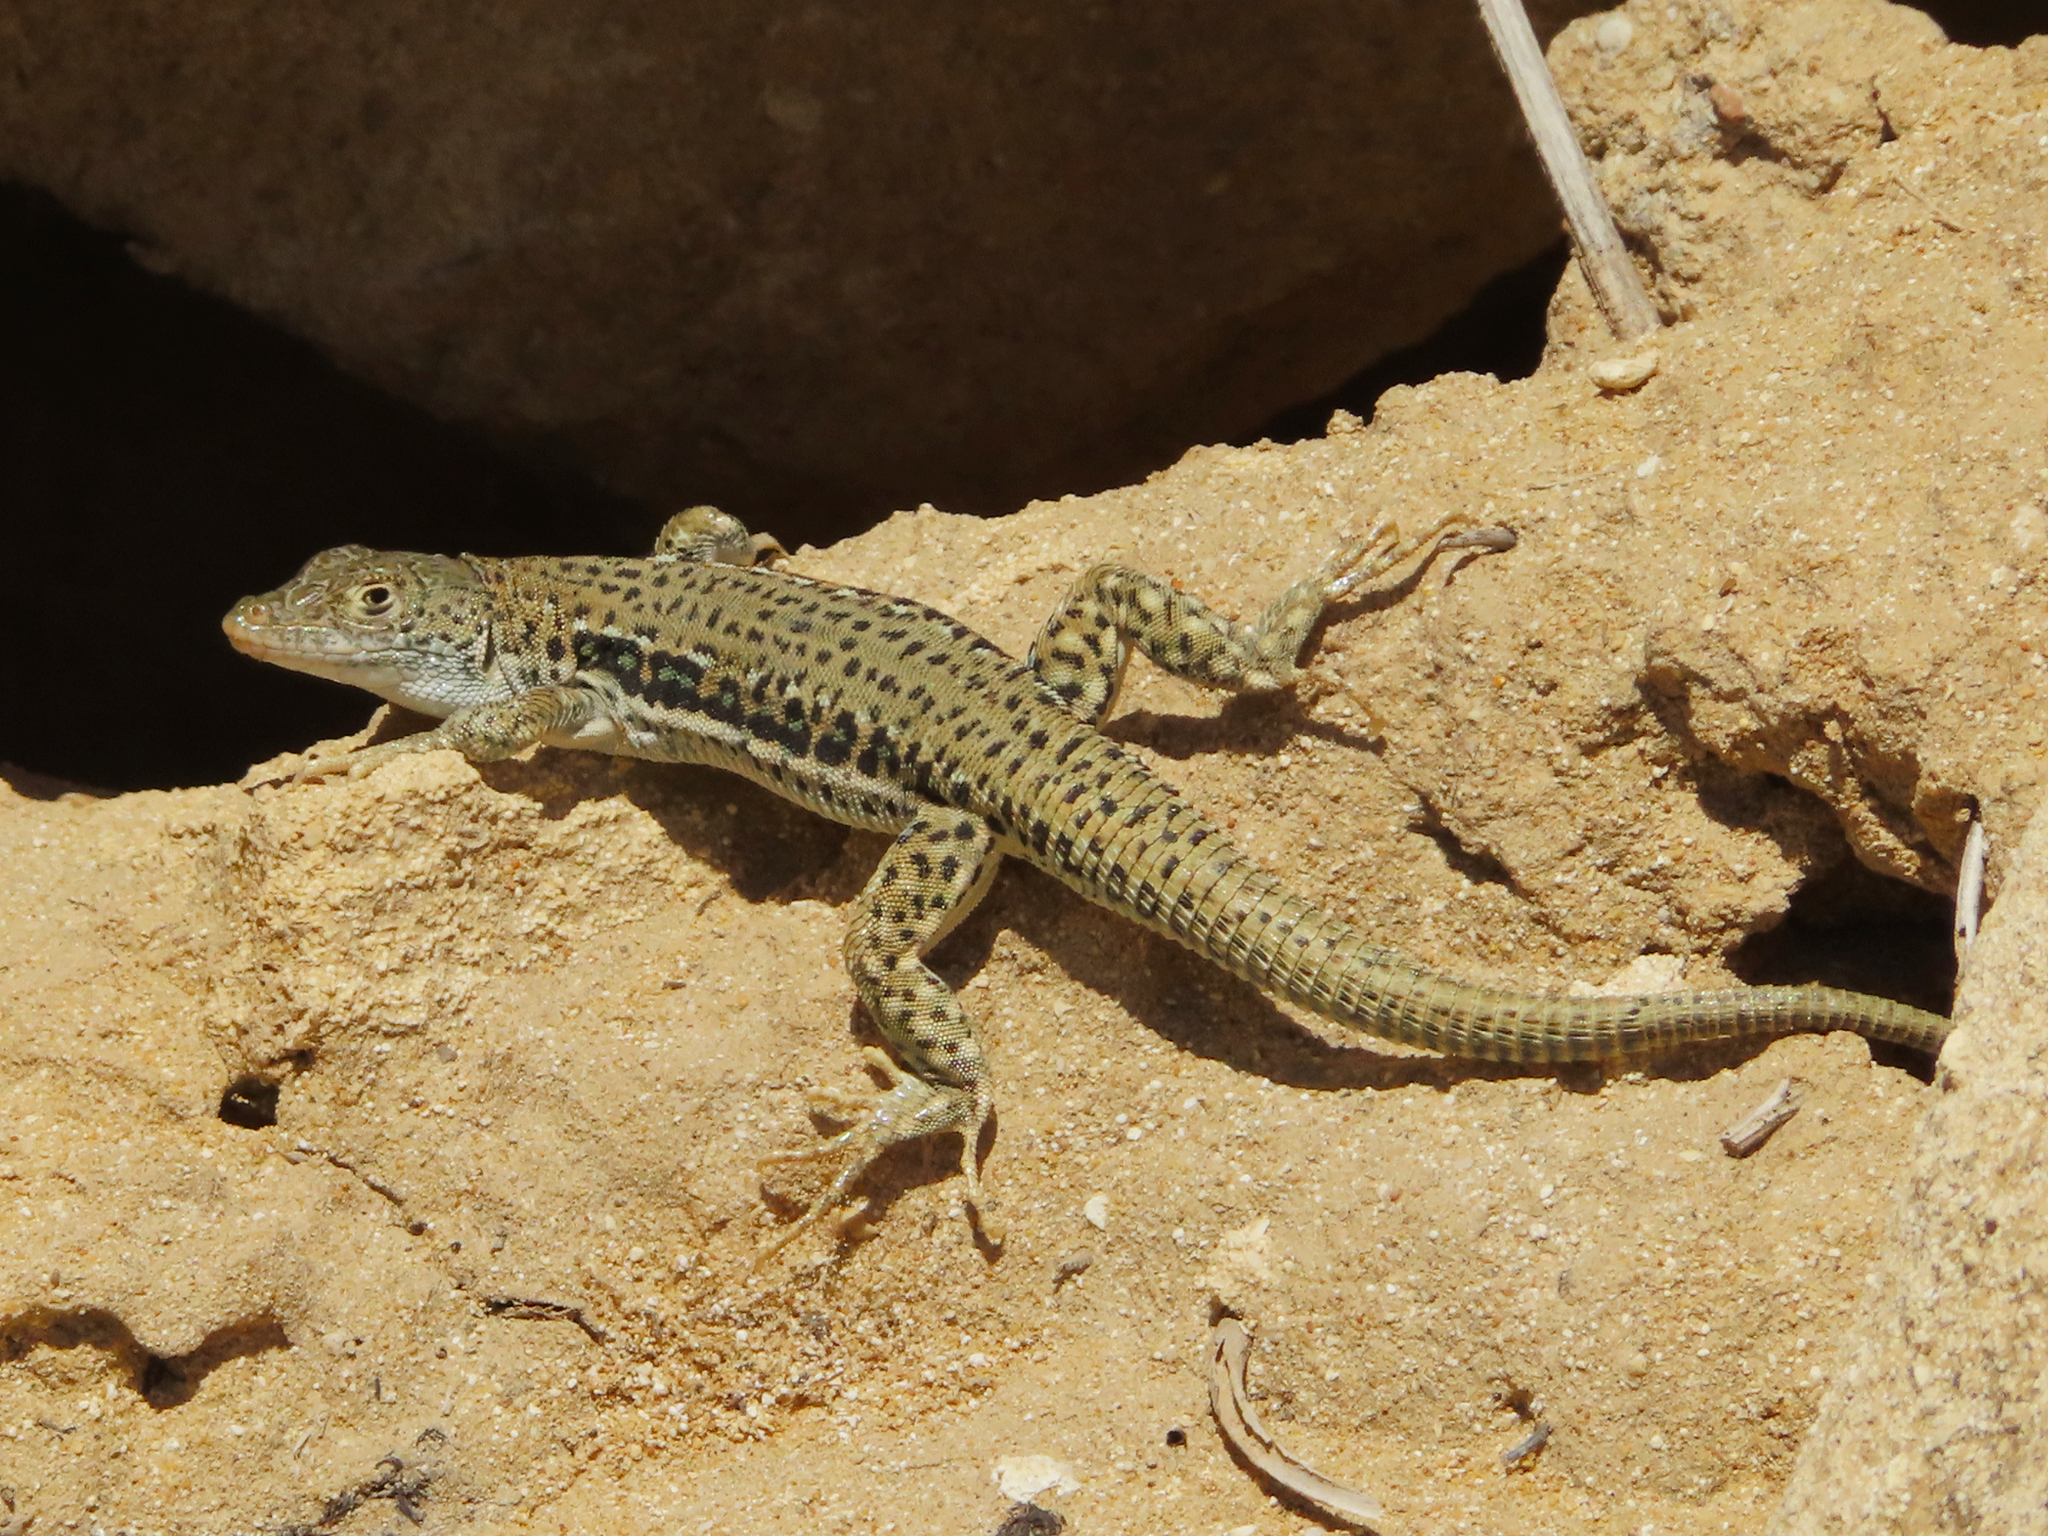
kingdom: Animalia
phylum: Chordata
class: Squamata
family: Lacertidae
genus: Eremias
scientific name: Eremias velox
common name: Central asian racerunner
